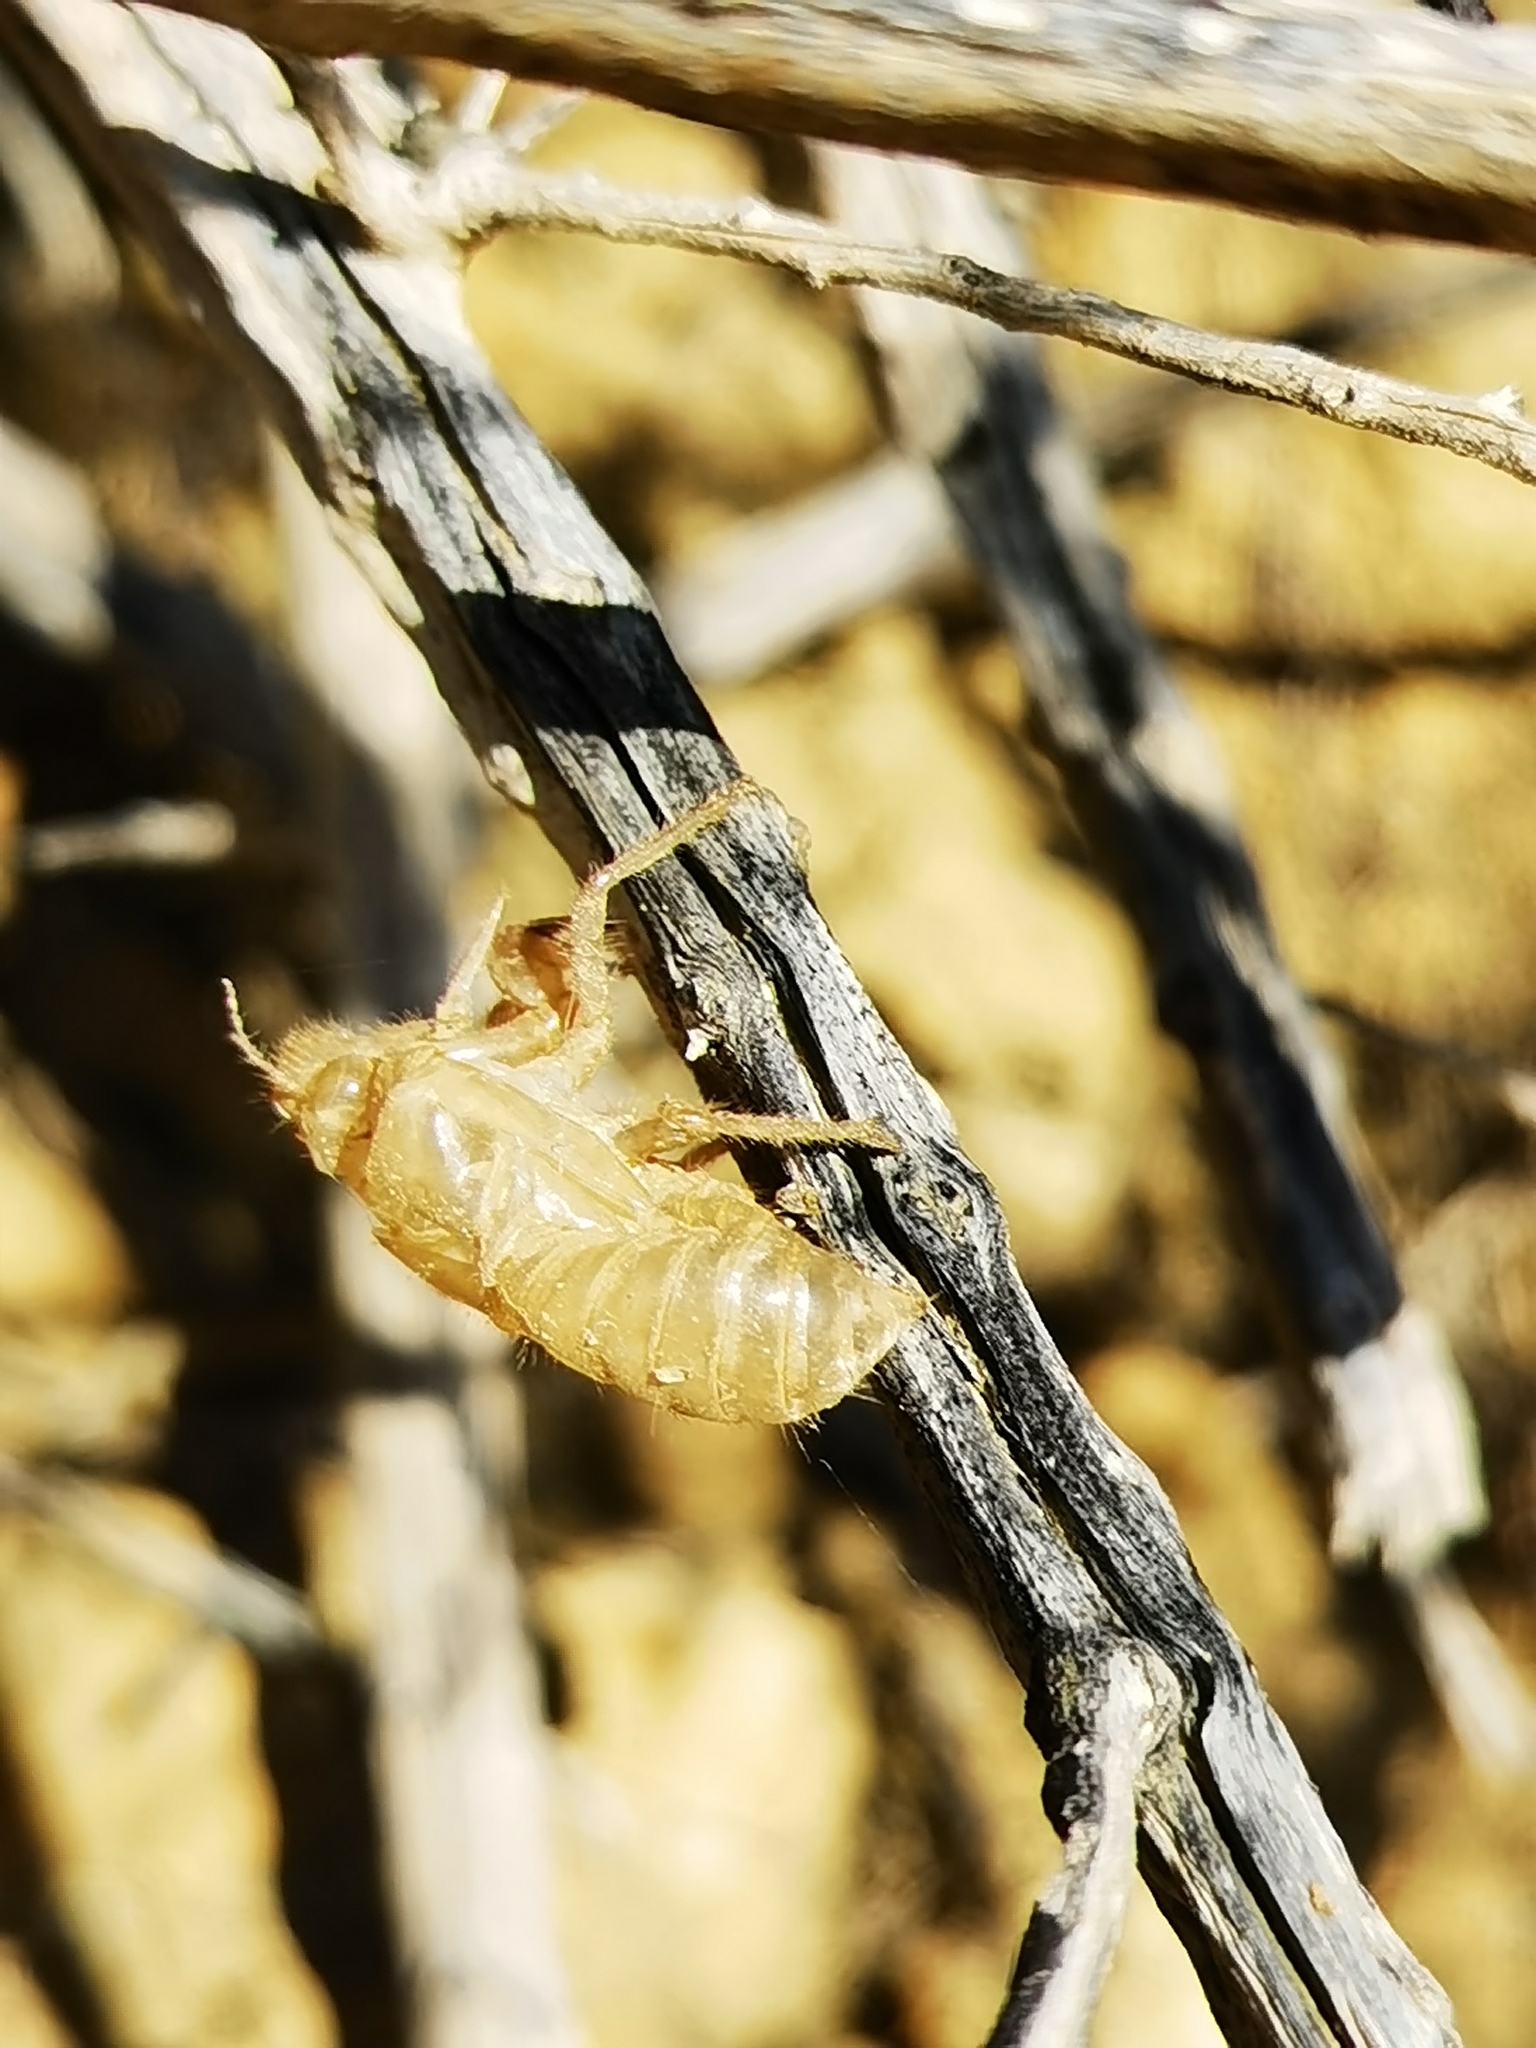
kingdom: Animalia
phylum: Arthropoda
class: Insecta
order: Hemiptera
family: Cicadidae
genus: Cicada
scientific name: Cicada barbara
